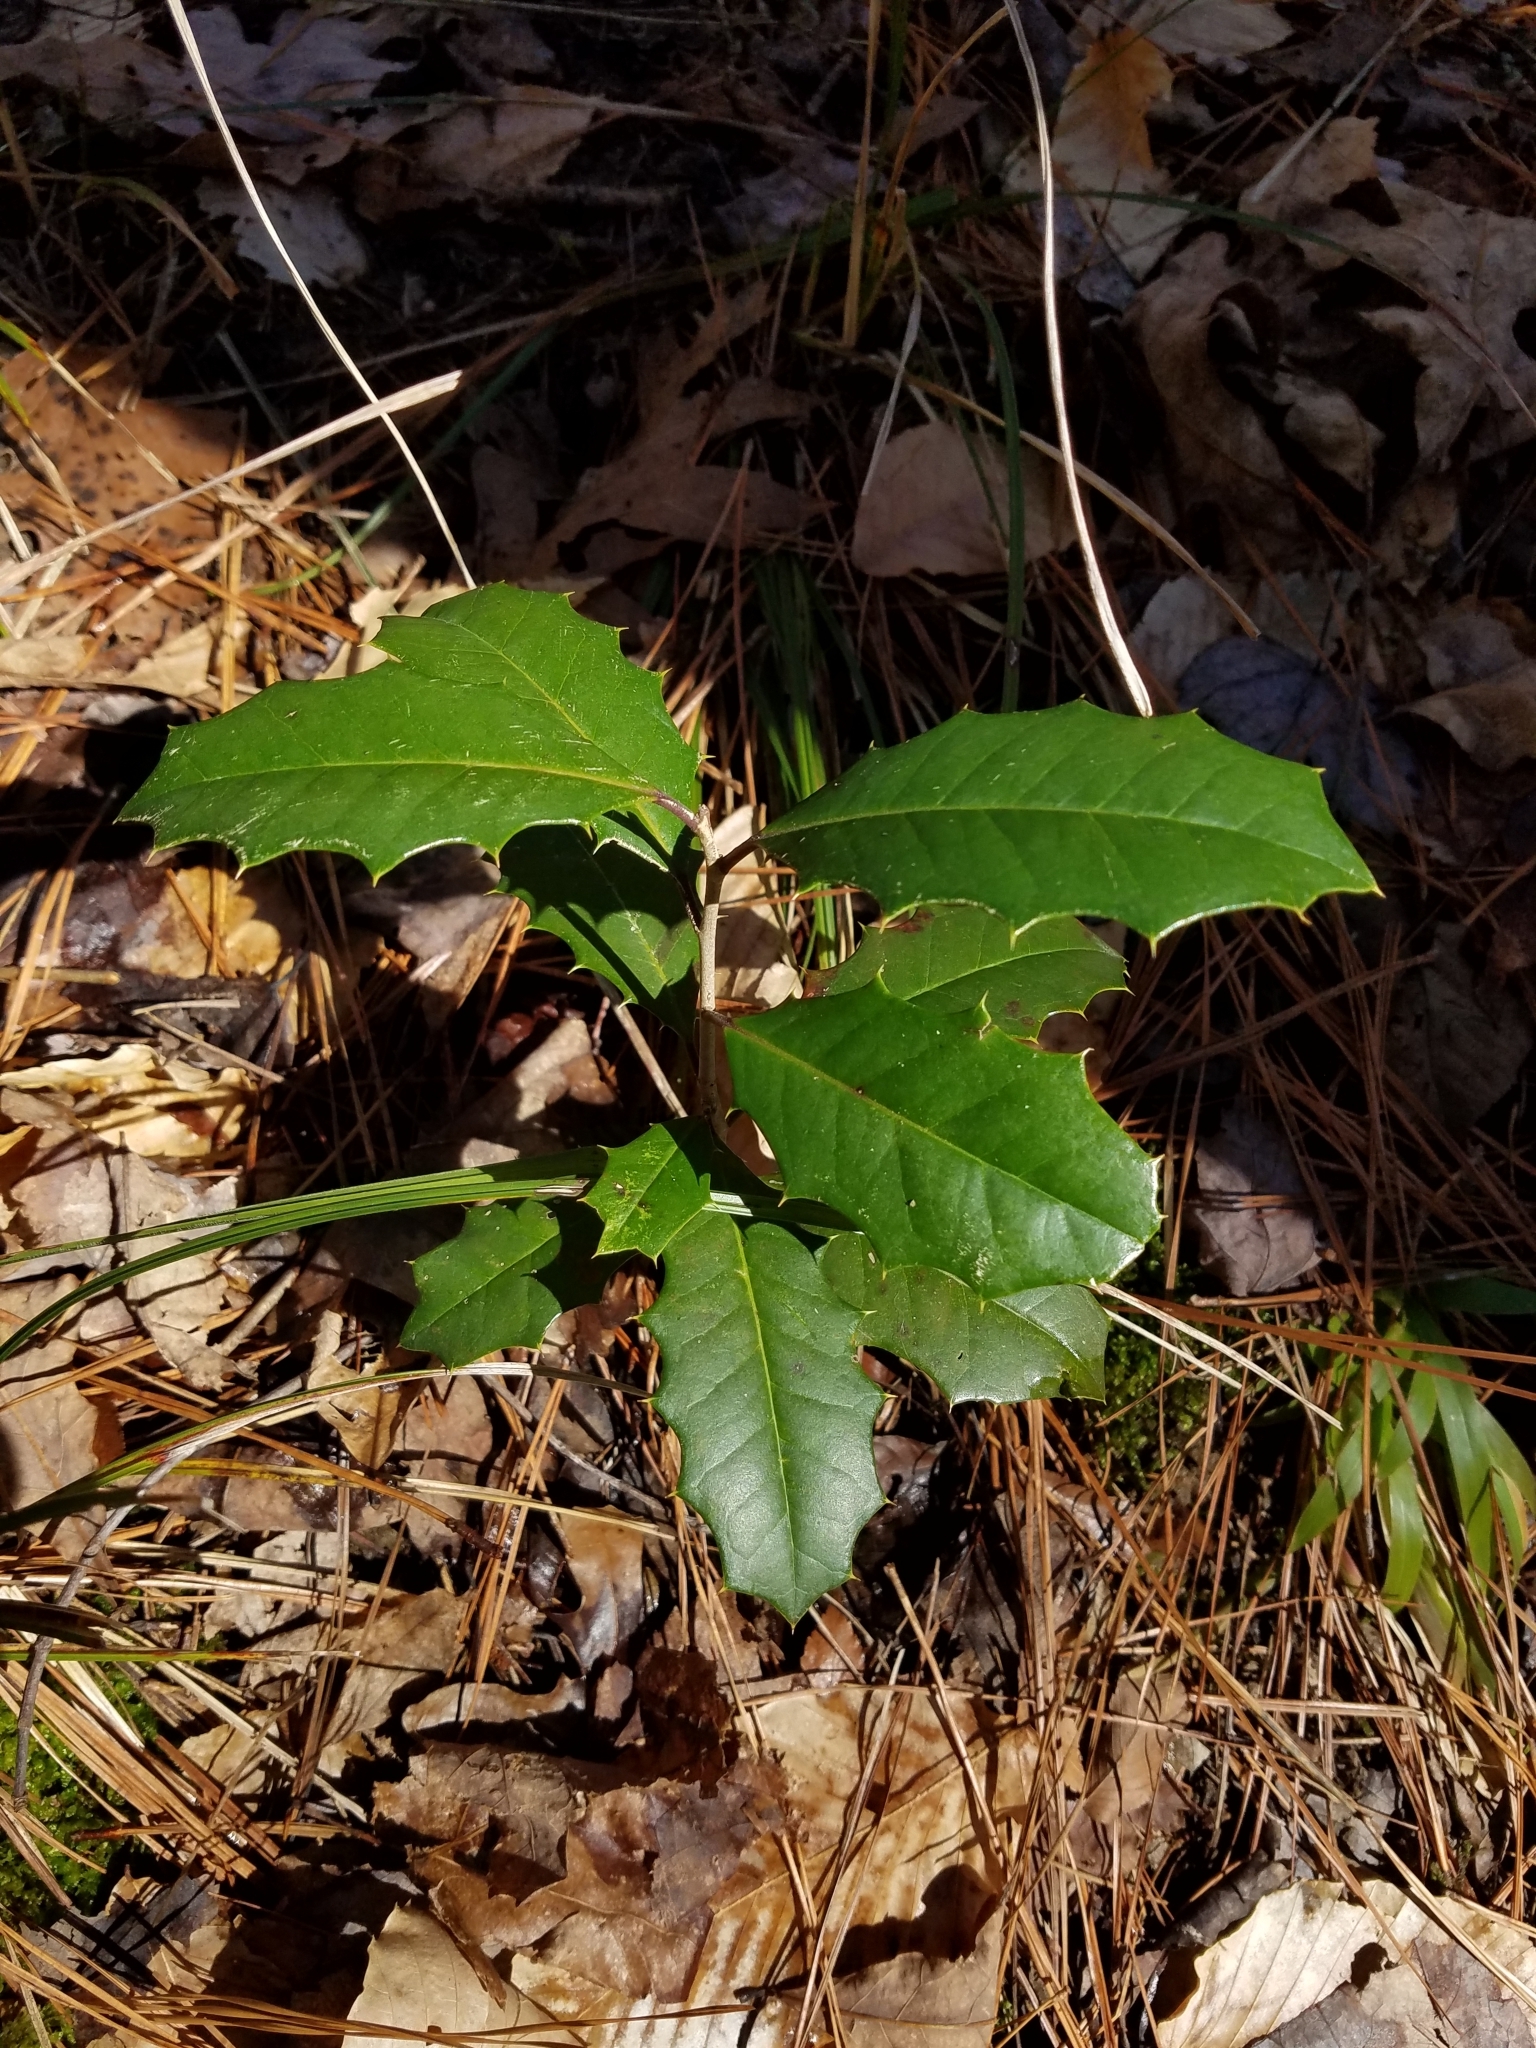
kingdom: Plantae
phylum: Tracheophyta
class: Magnoliopsida
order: Aquifoliales
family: Aquifoliaceae
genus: Ilex
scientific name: Ilex opaca
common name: American holly
